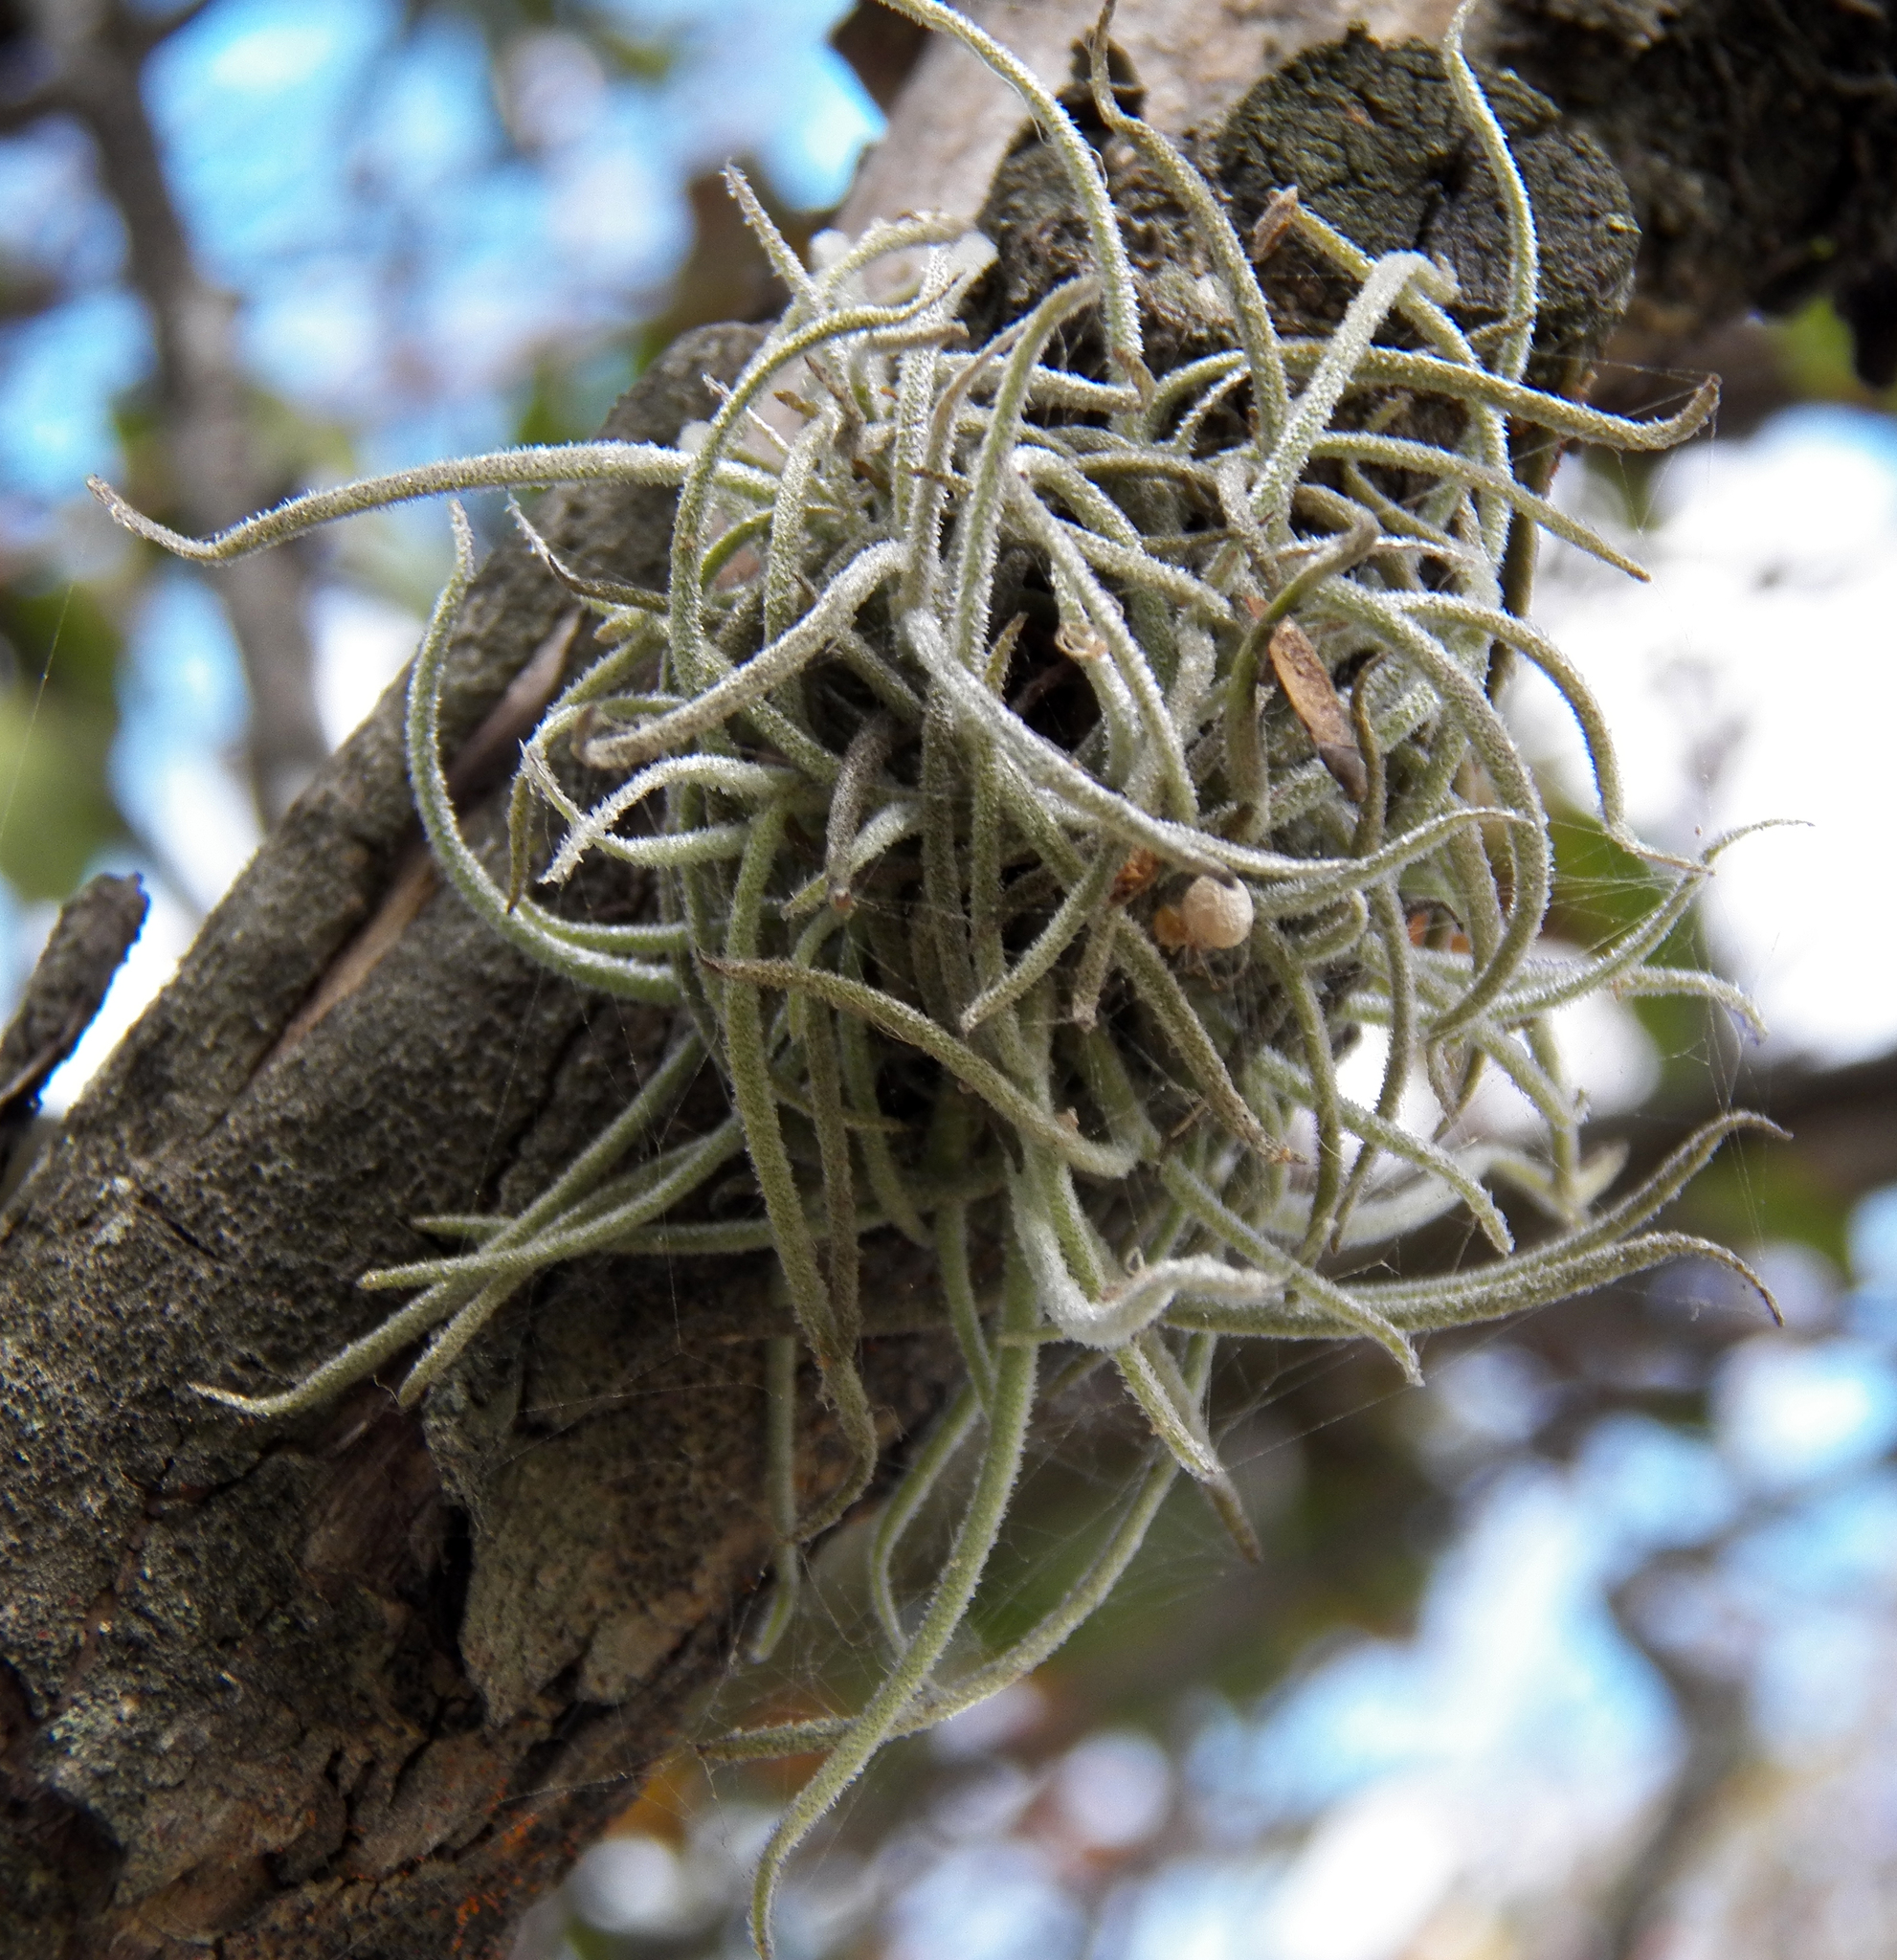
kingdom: Plantae
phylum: Tracheophyta
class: Liliopsida
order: Poales
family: Bromeliaceae
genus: Tillandsia
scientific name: Tillandsia recurvata
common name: Small ballmoss
